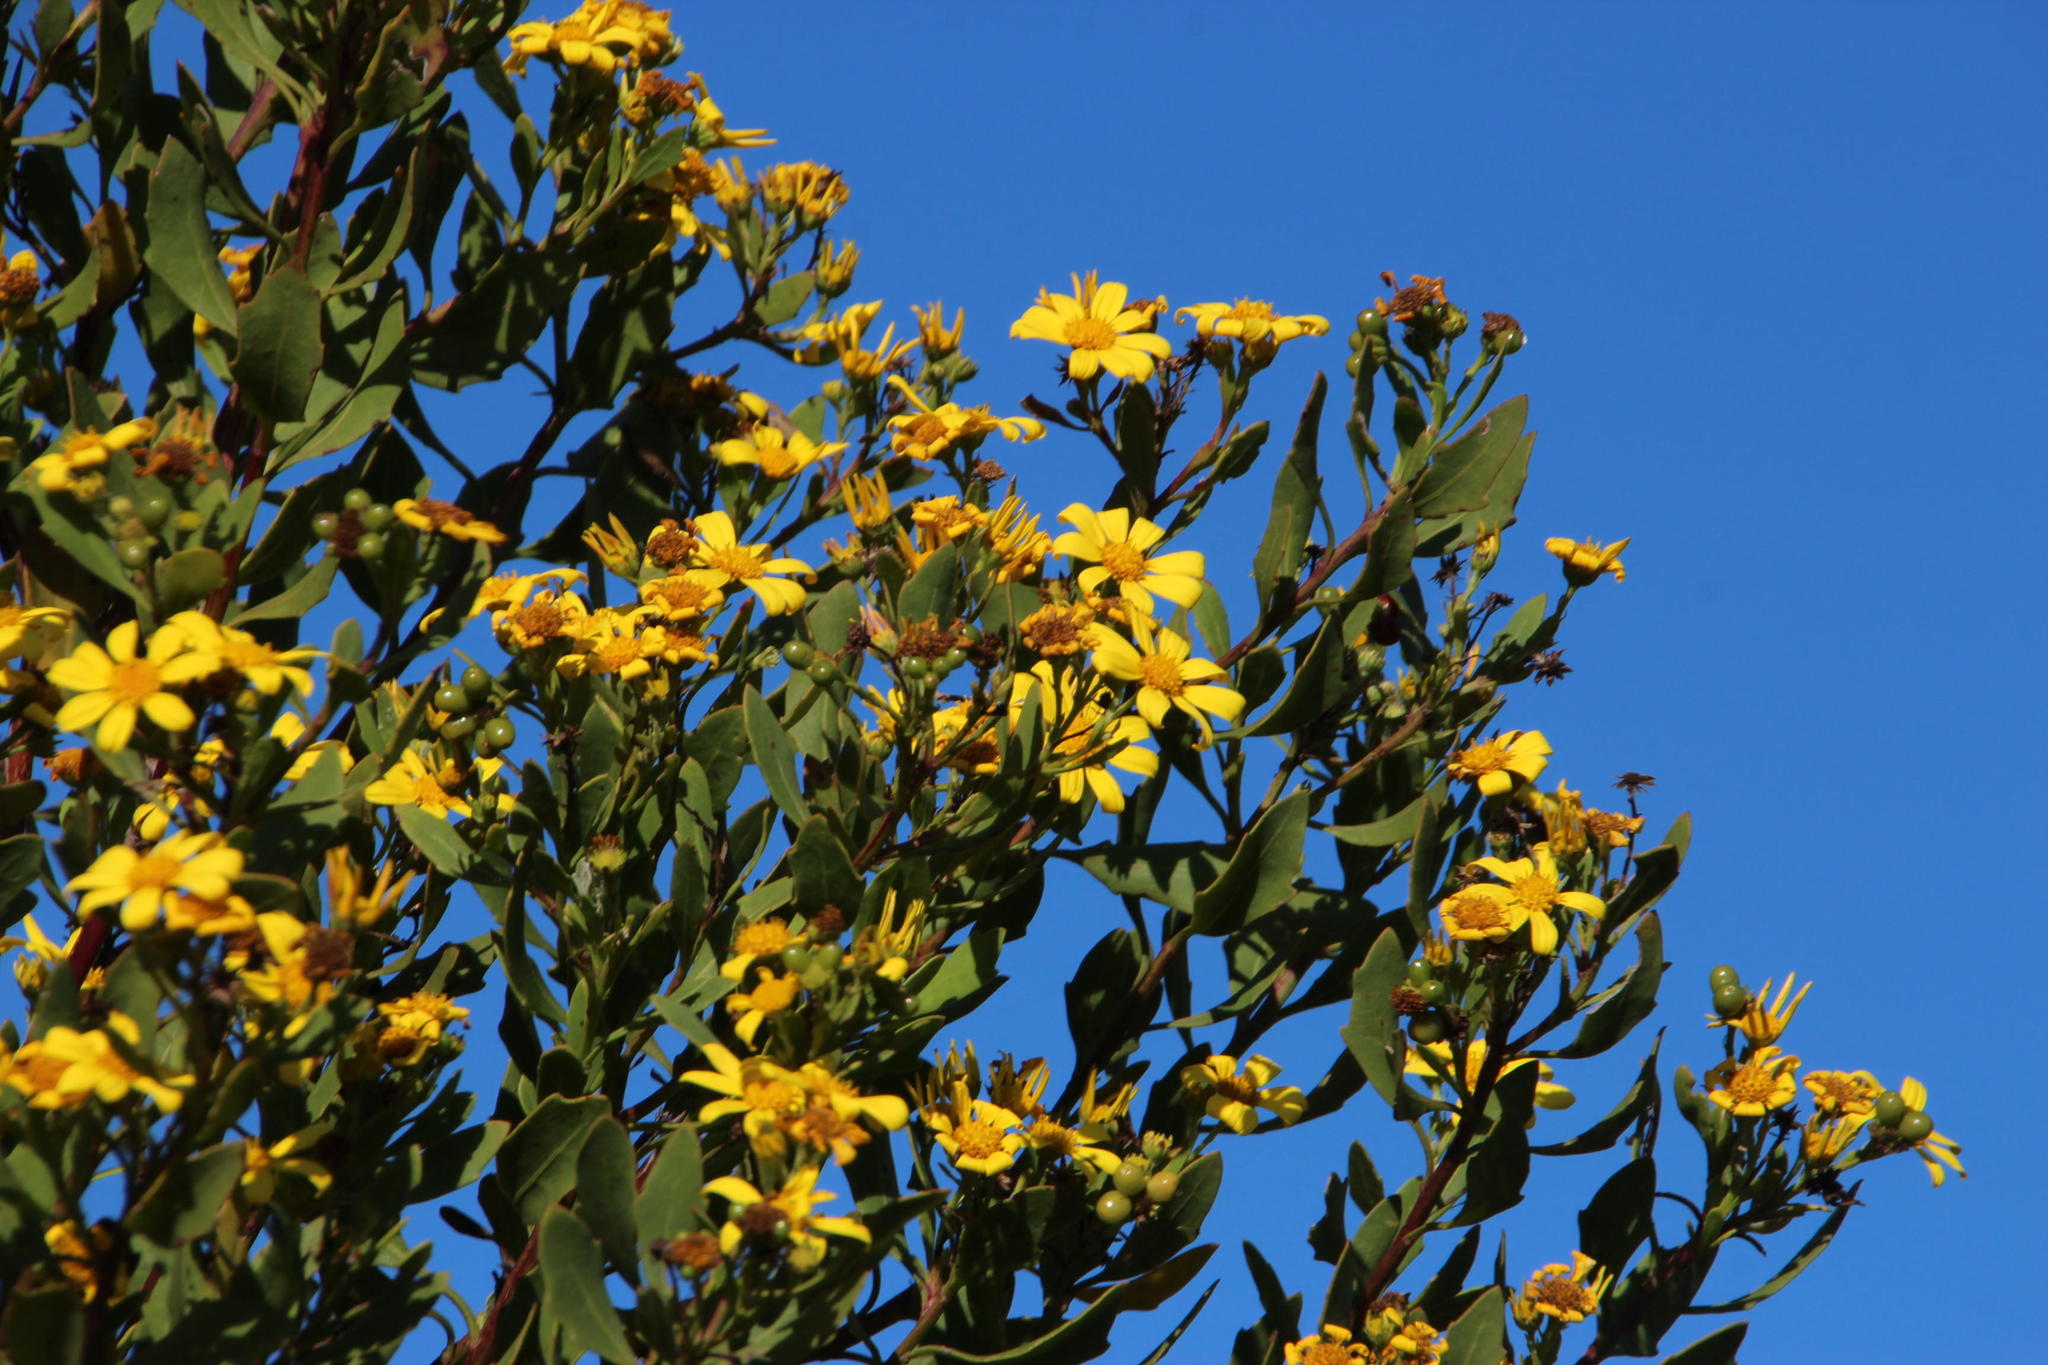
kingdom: Plantae
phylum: Tracheophyta
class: Magnoliopsida
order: Asterales
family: Asteraceae
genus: Osteospermum
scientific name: Osteospermum moniliferum
